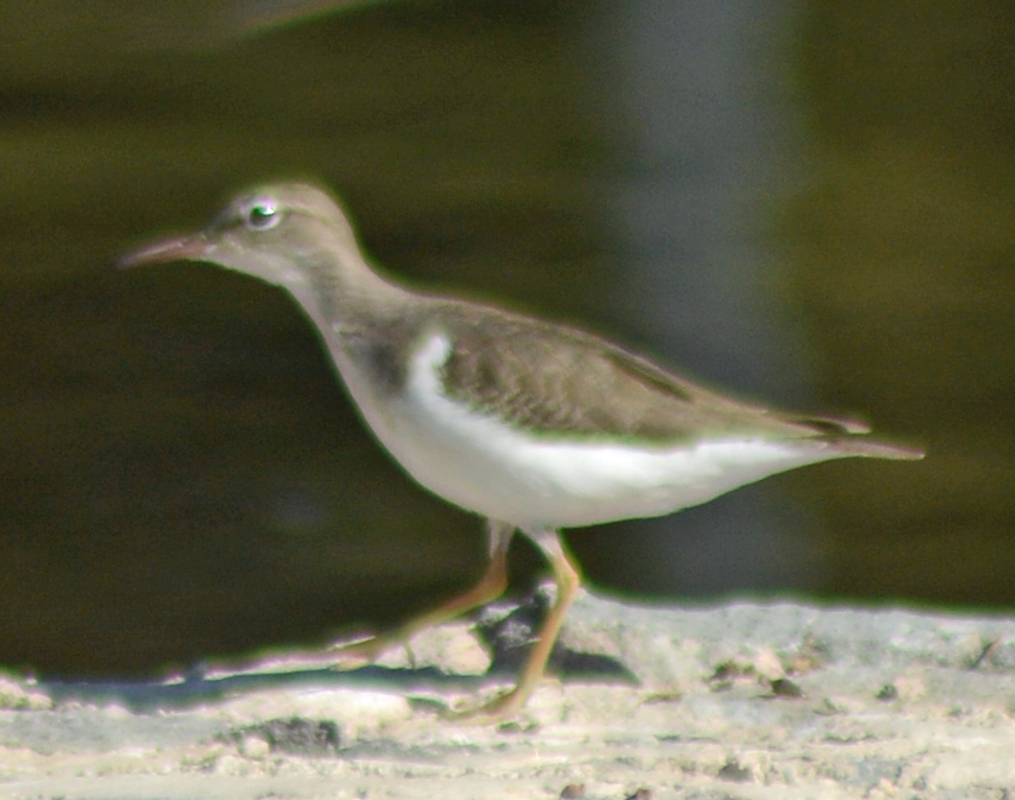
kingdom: Animalia
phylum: Chordata
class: Aves
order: Charadriiformes
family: Scolopacidae
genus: Actitis
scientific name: Actitis macularius
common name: Spotted sandpiper
